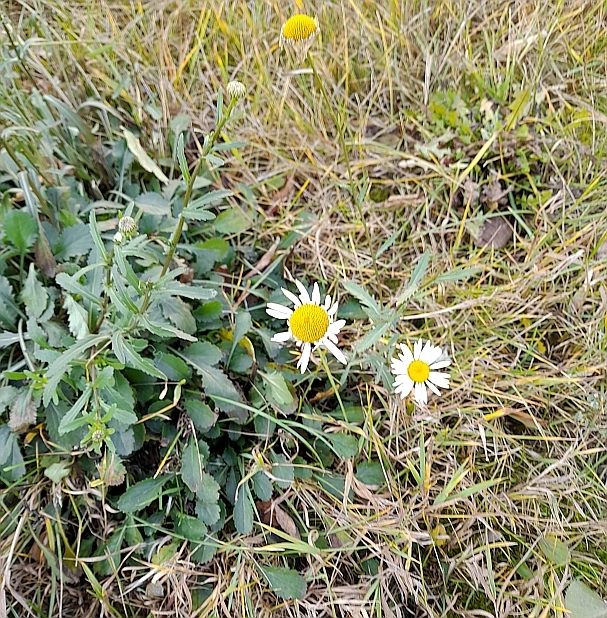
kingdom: Plantae
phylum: Tracheophyta
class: Magnoliopsida
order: Asterales
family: Asteraceae
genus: Leucanthemum
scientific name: Leucanthemum vulgare
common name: Oxeye daisy
